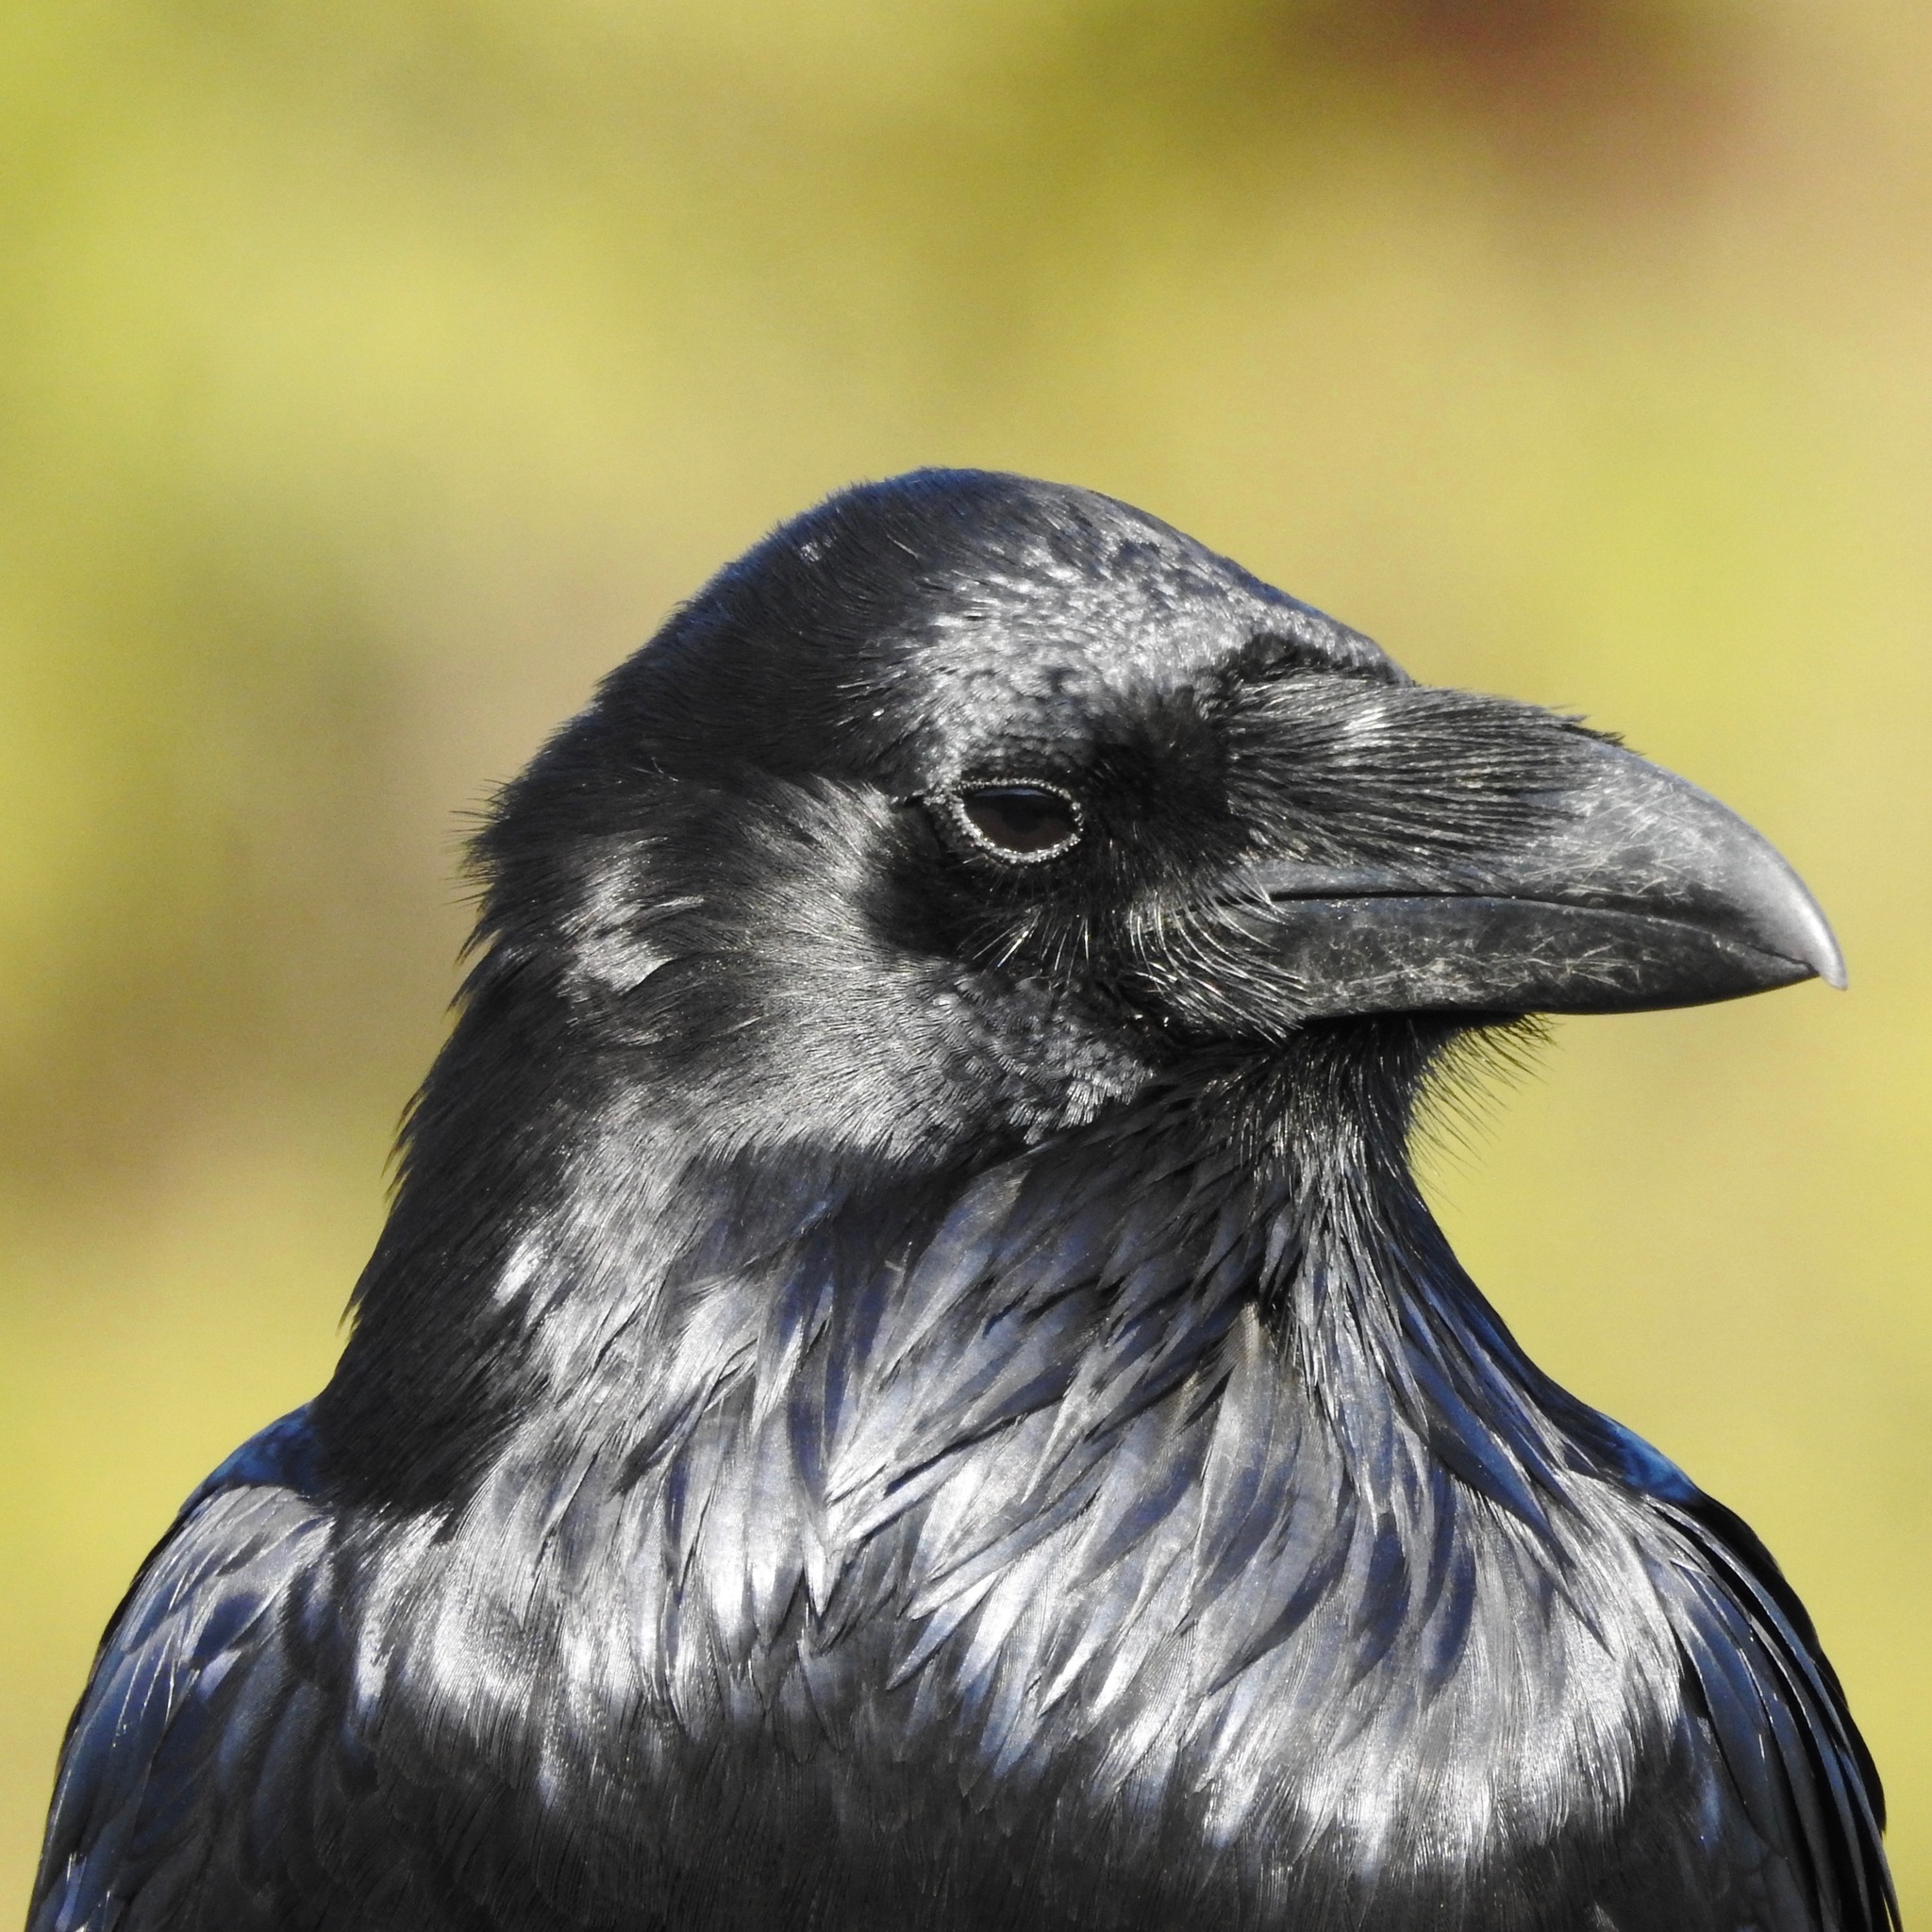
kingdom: Animalia
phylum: Chordata
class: Aves
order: Passeriformes
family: Corvidae
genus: Corvus
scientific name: Corvus corax
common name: Common raven
